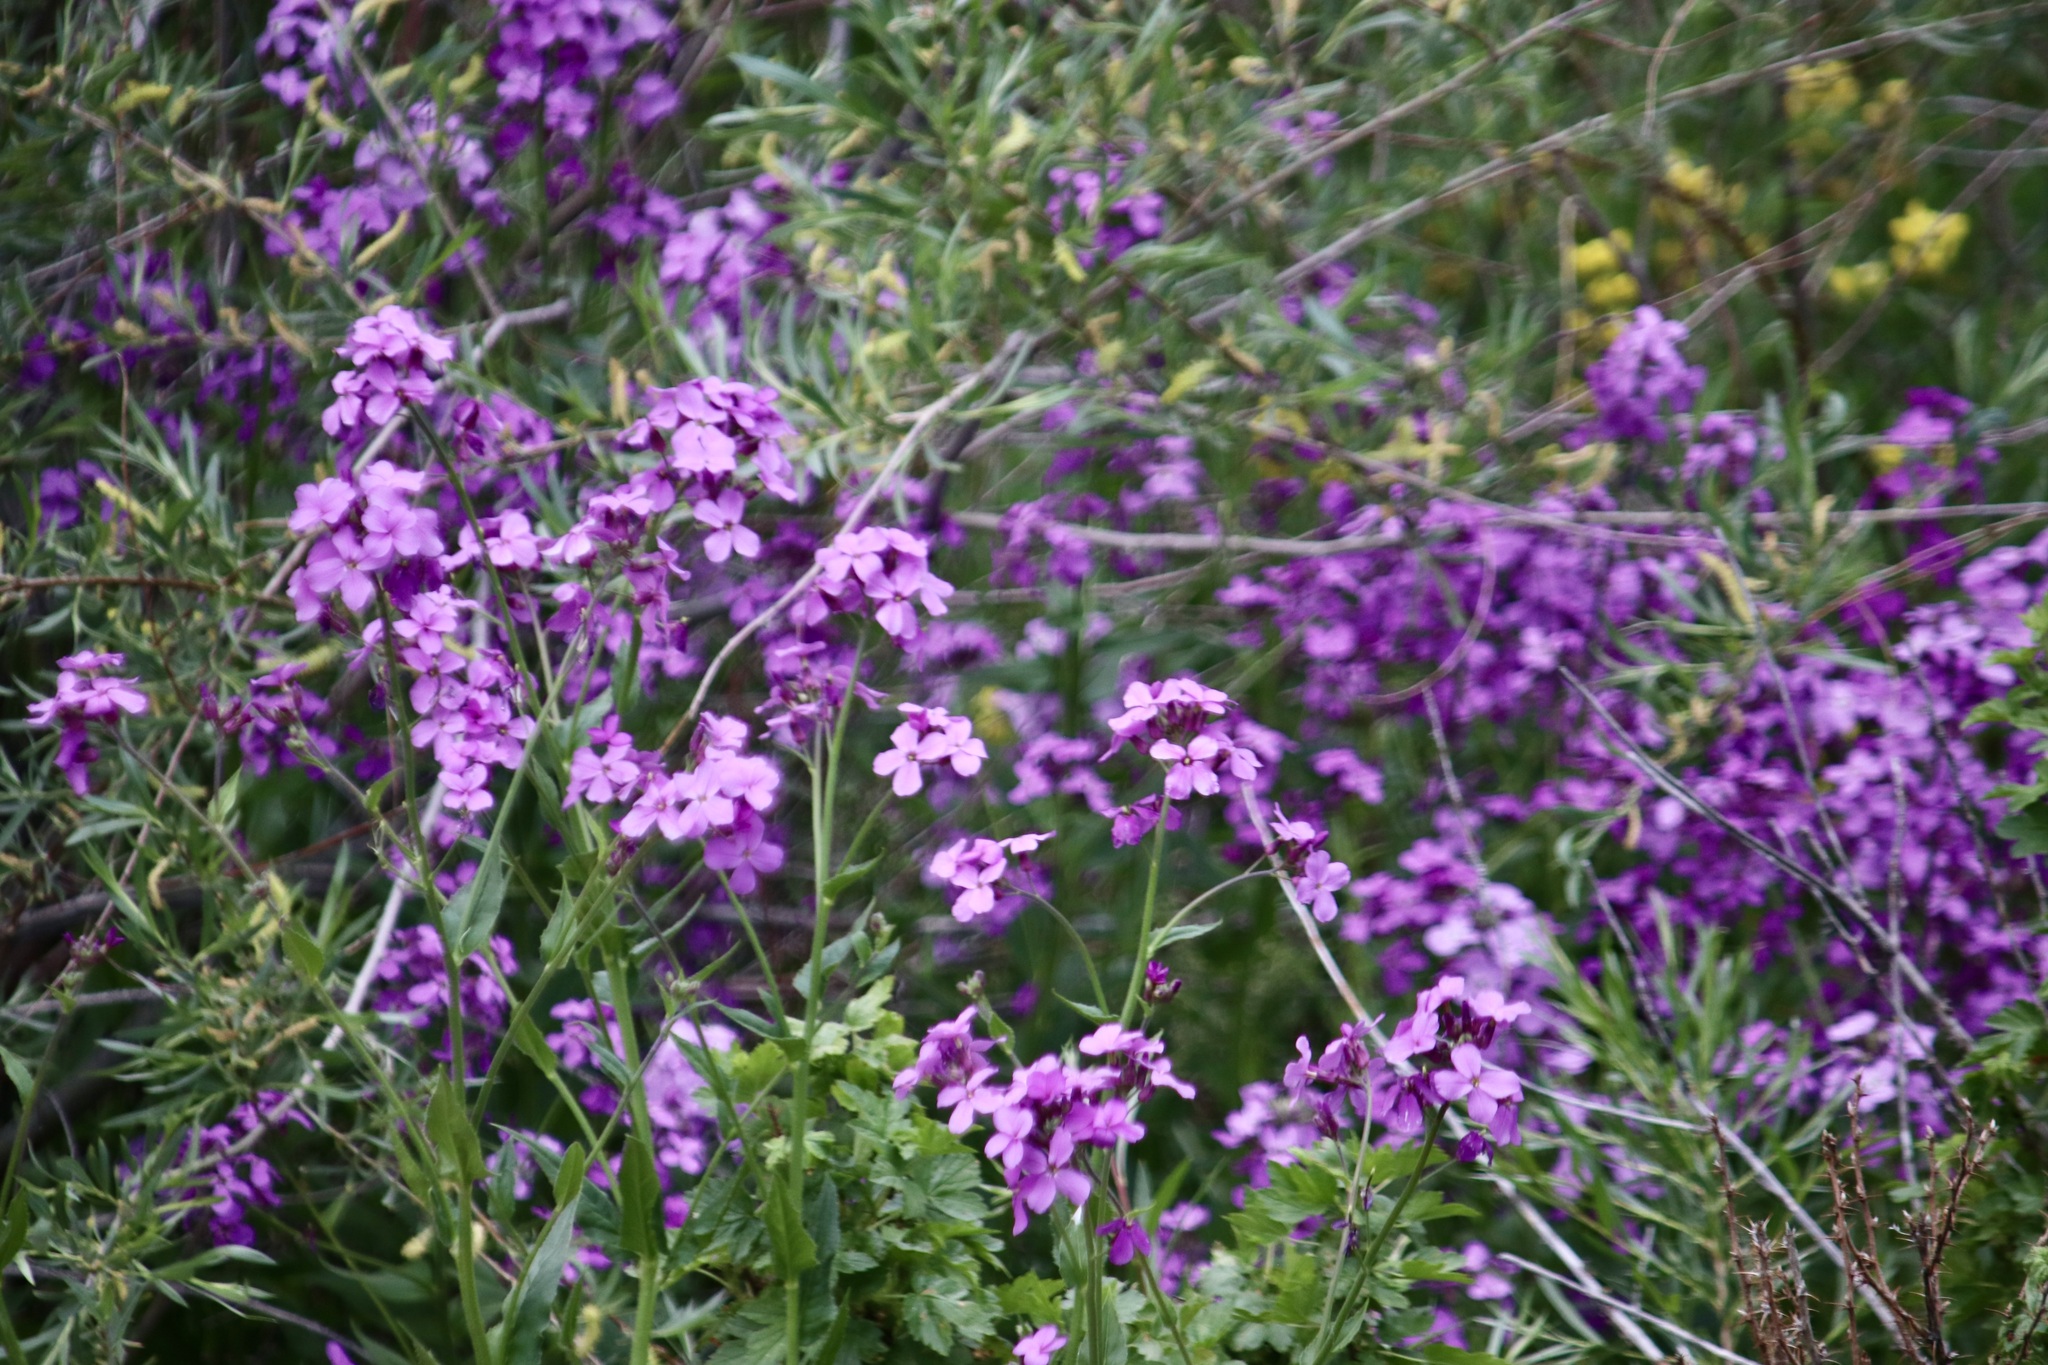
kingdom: Plantae
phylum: Tracheophyta
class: Magnoliopsida
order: Brassicales
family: Brassicaceae
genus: Hesperis
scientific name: Hesperis matronalis
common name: Dame's-violet
